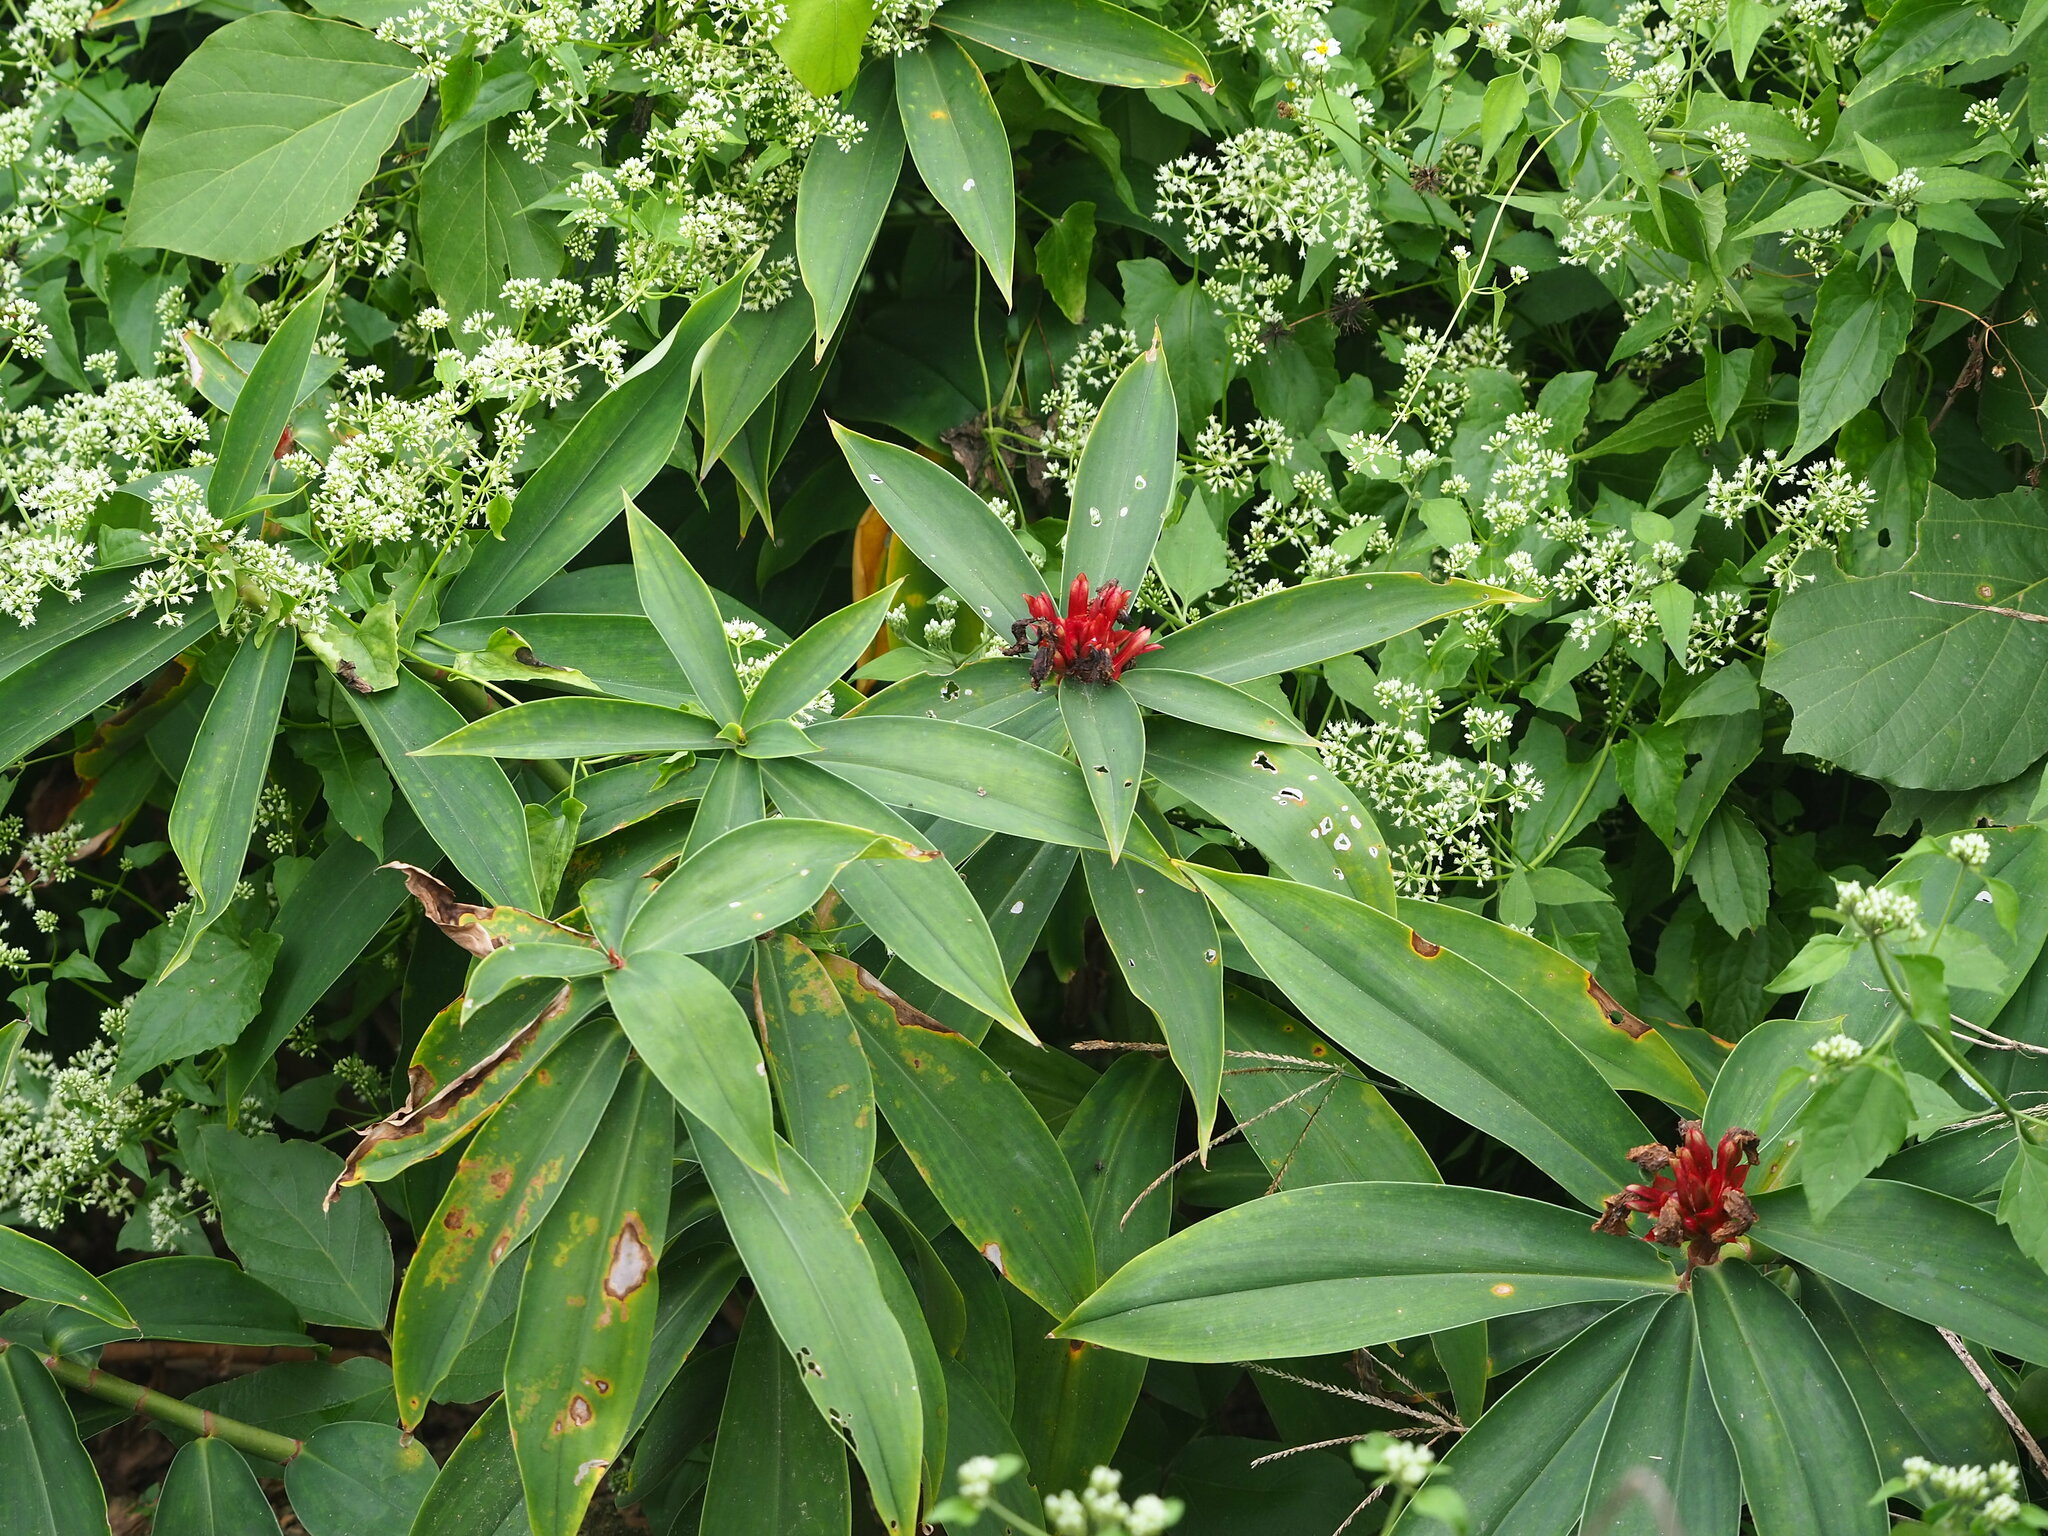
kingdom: Plantae
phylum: Tracheophyta
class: Liliopsida
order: Zingiberales
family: Costaceae
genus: Hellenia
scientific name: Hellenia speciosa
